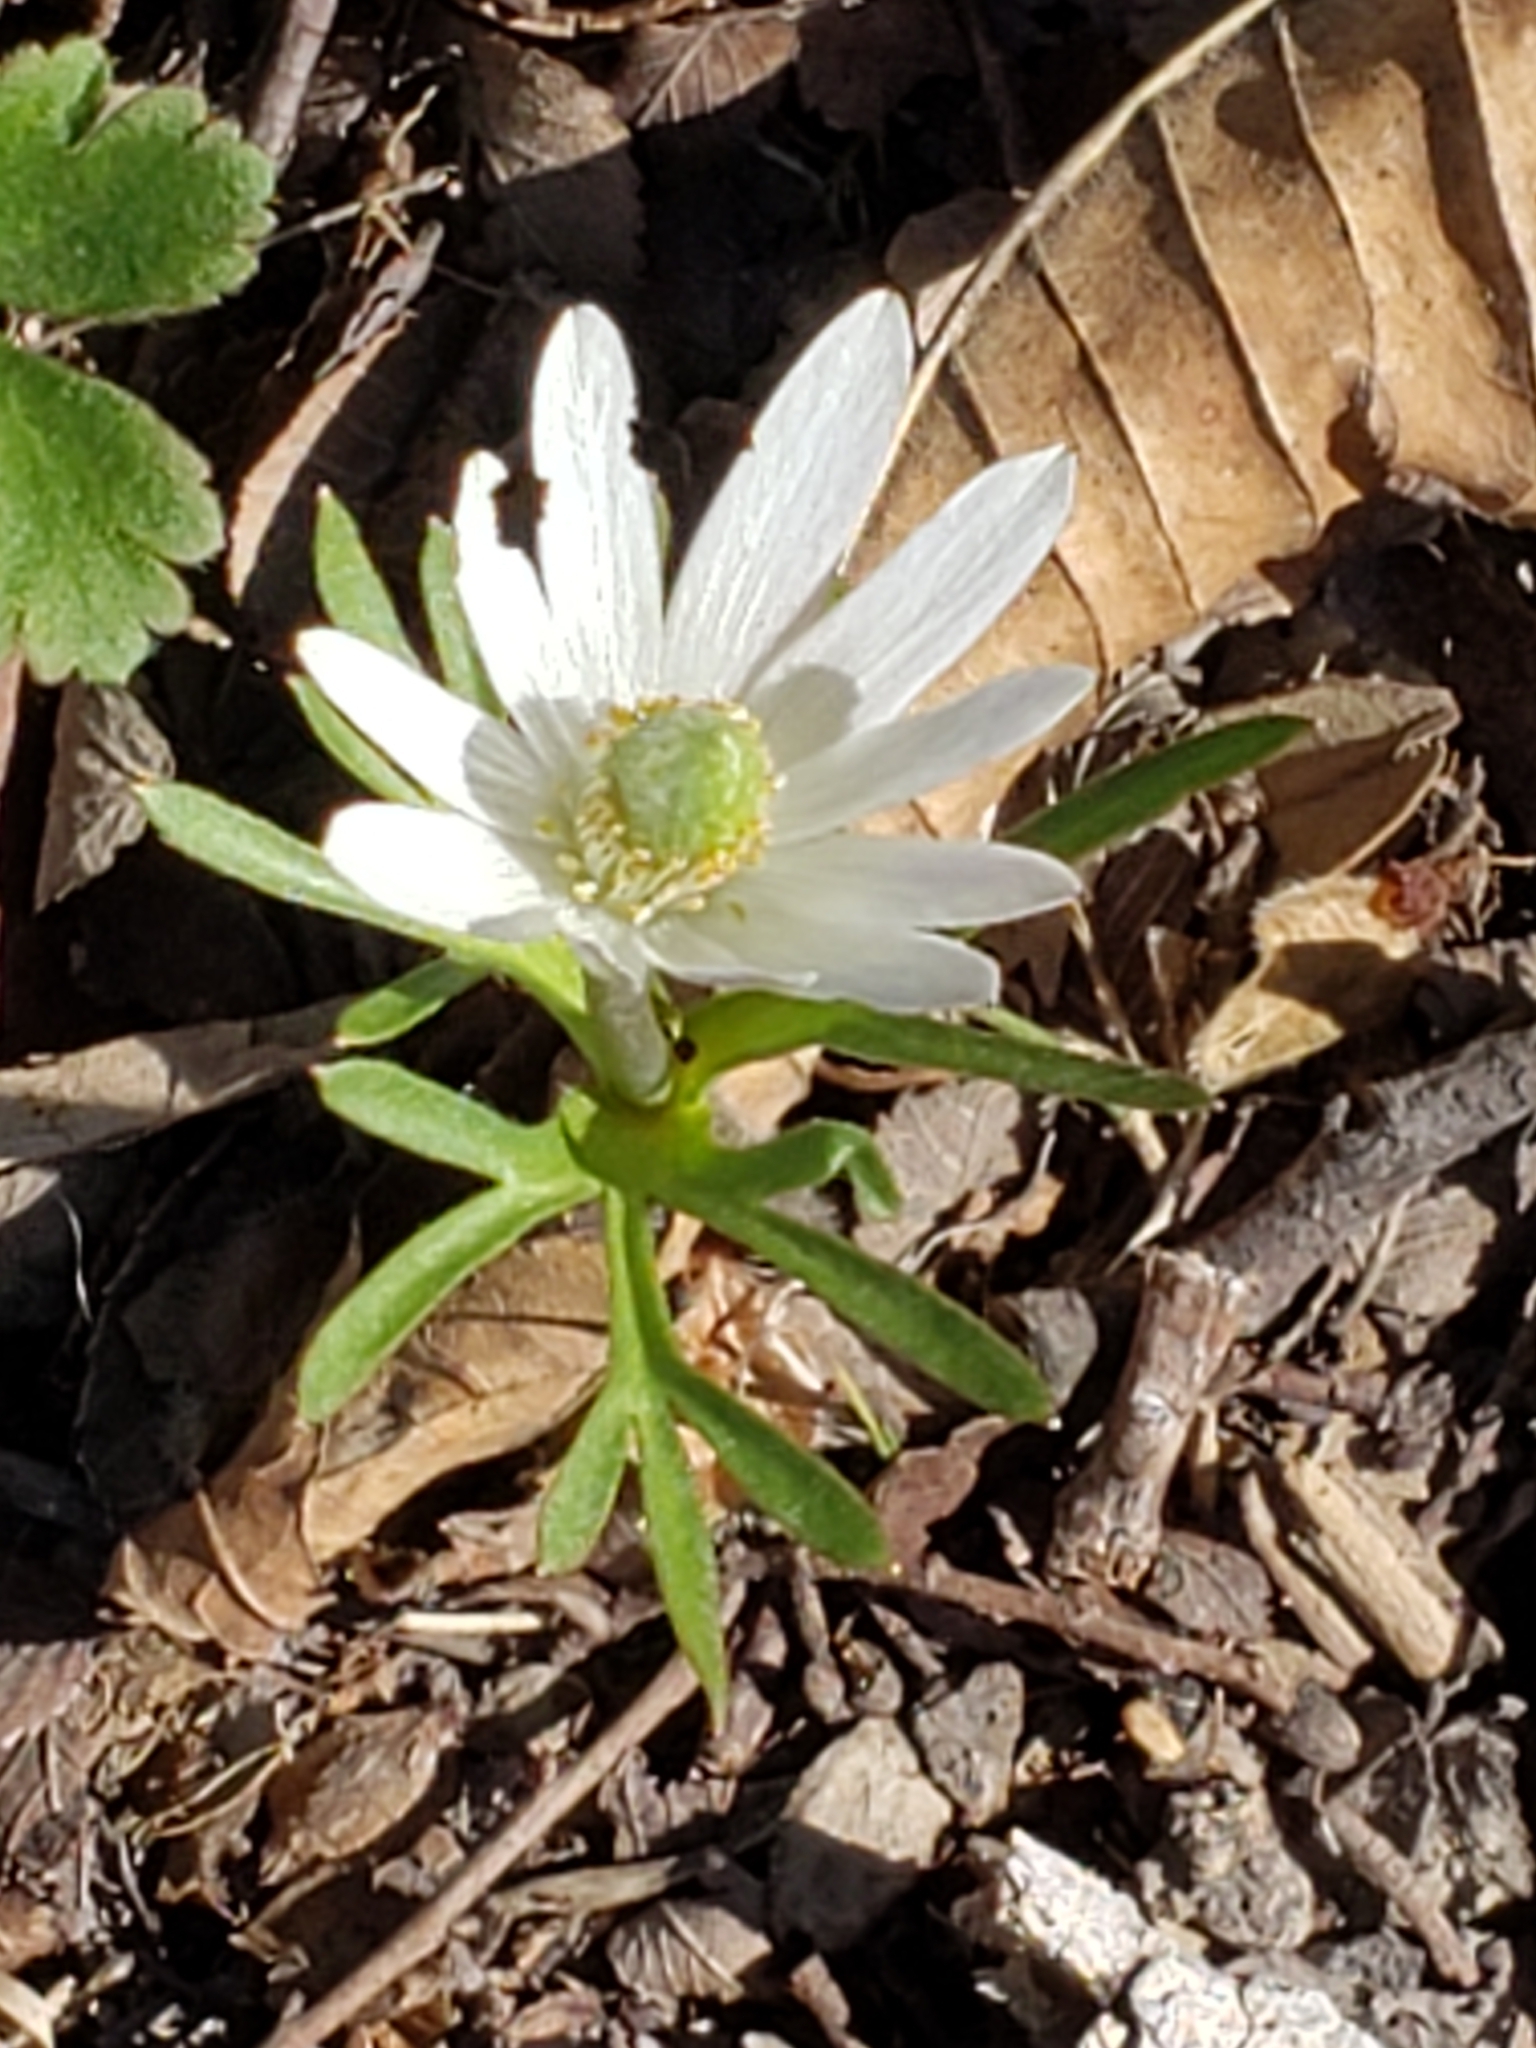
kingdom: Plantae
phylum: Tracheophyta
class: Magnoliopsida
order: Ranunculales
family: Ranunculaceae
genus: Anemone
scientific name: Anemone berlandieri
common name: Ten-petal anemone
